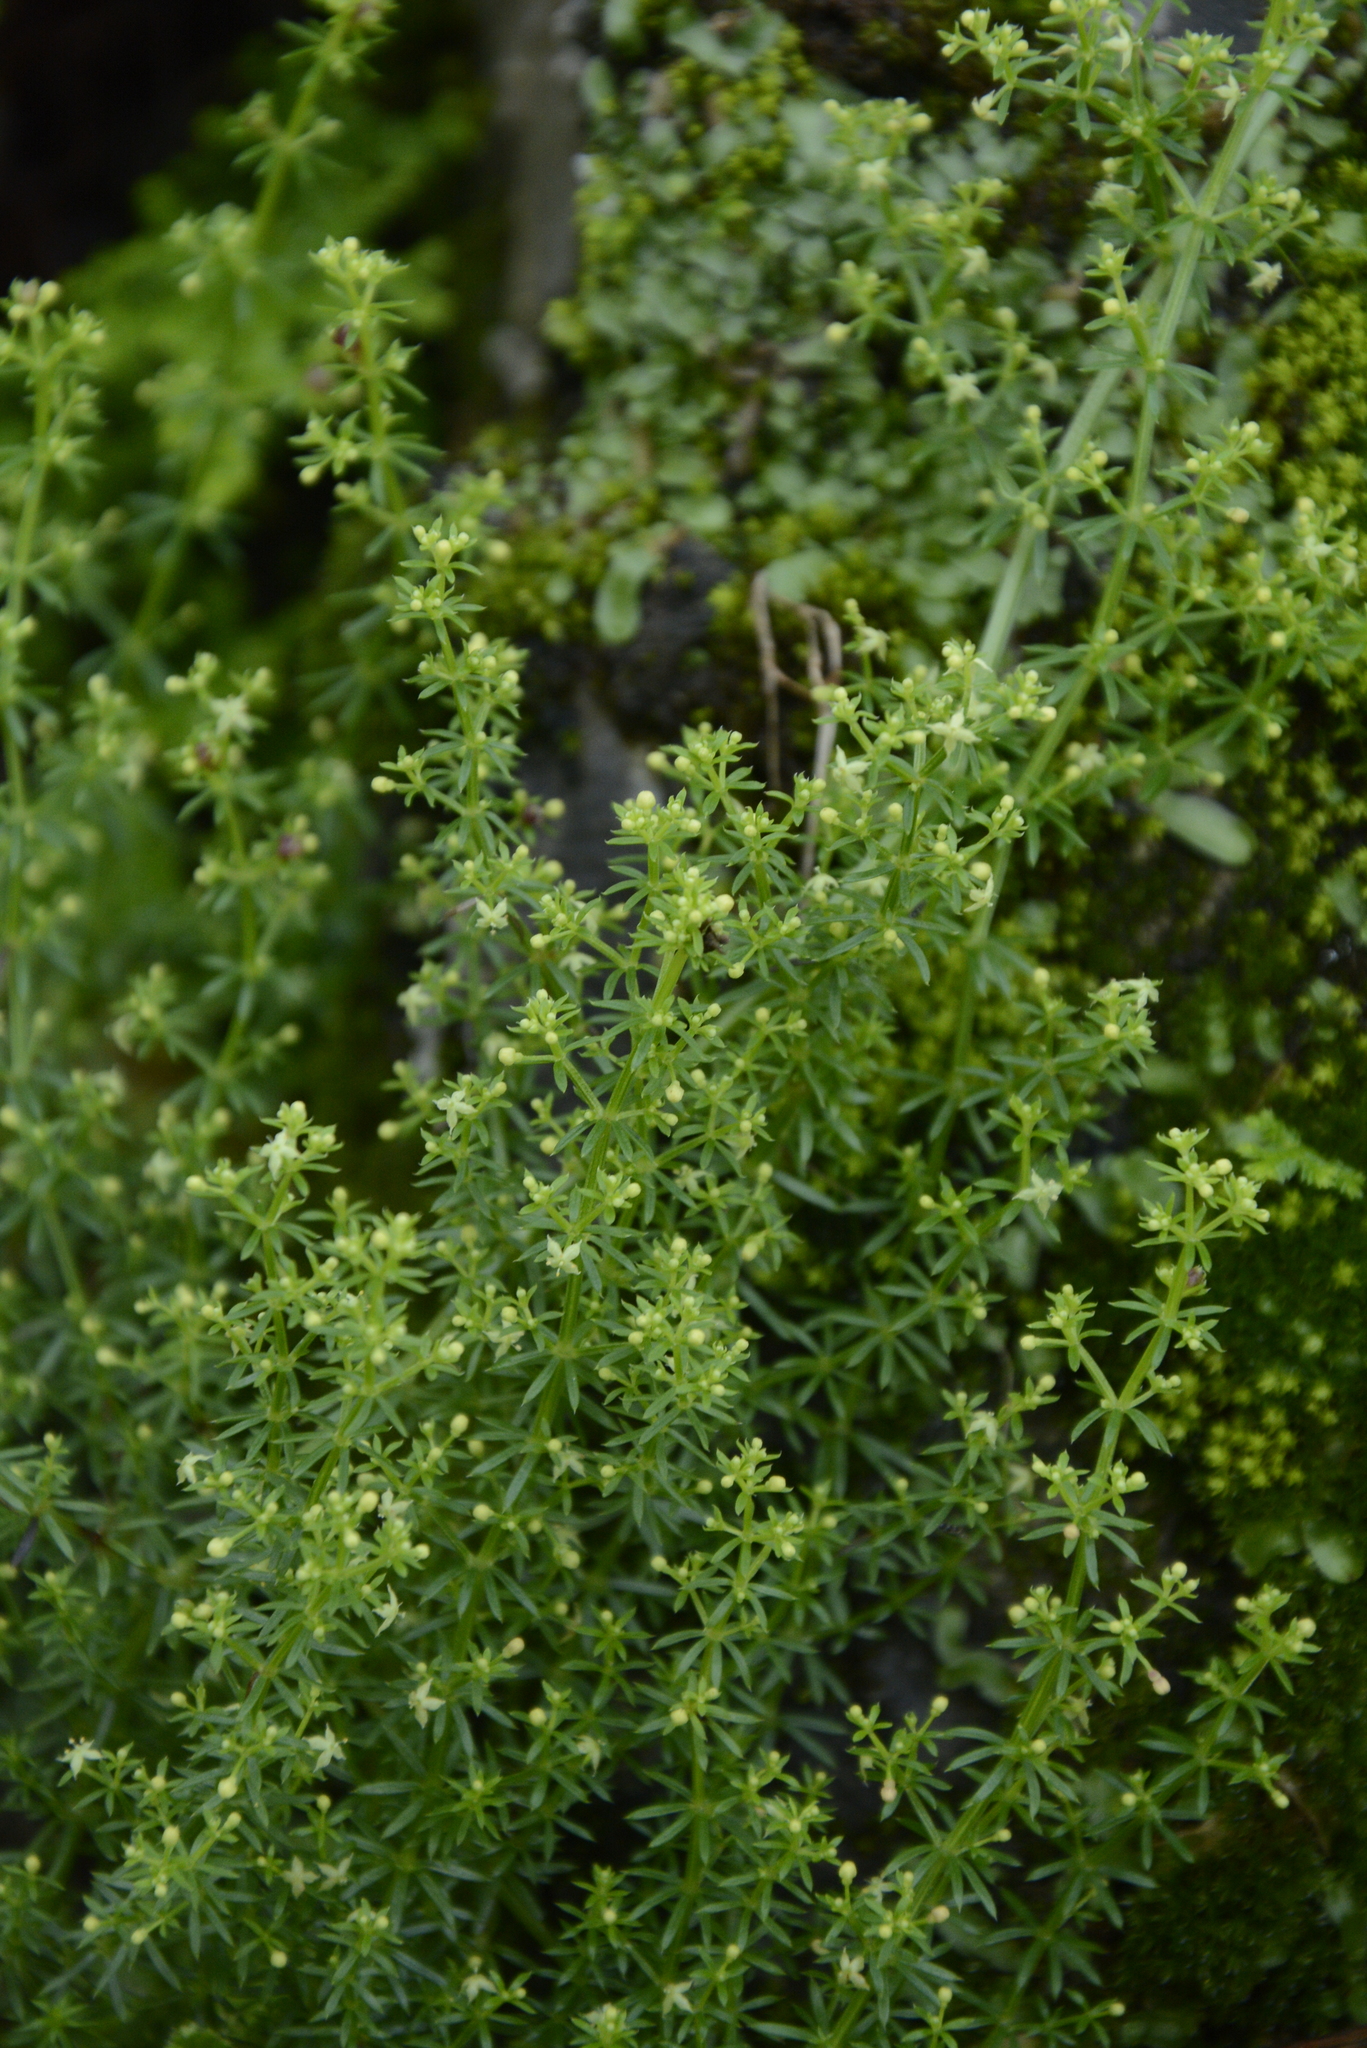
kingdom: Plantae
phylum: Tracheophyta
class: Magnoliopsida
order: Gentianales
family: Rubiaceae
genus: Galium
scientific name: Galium acutum
